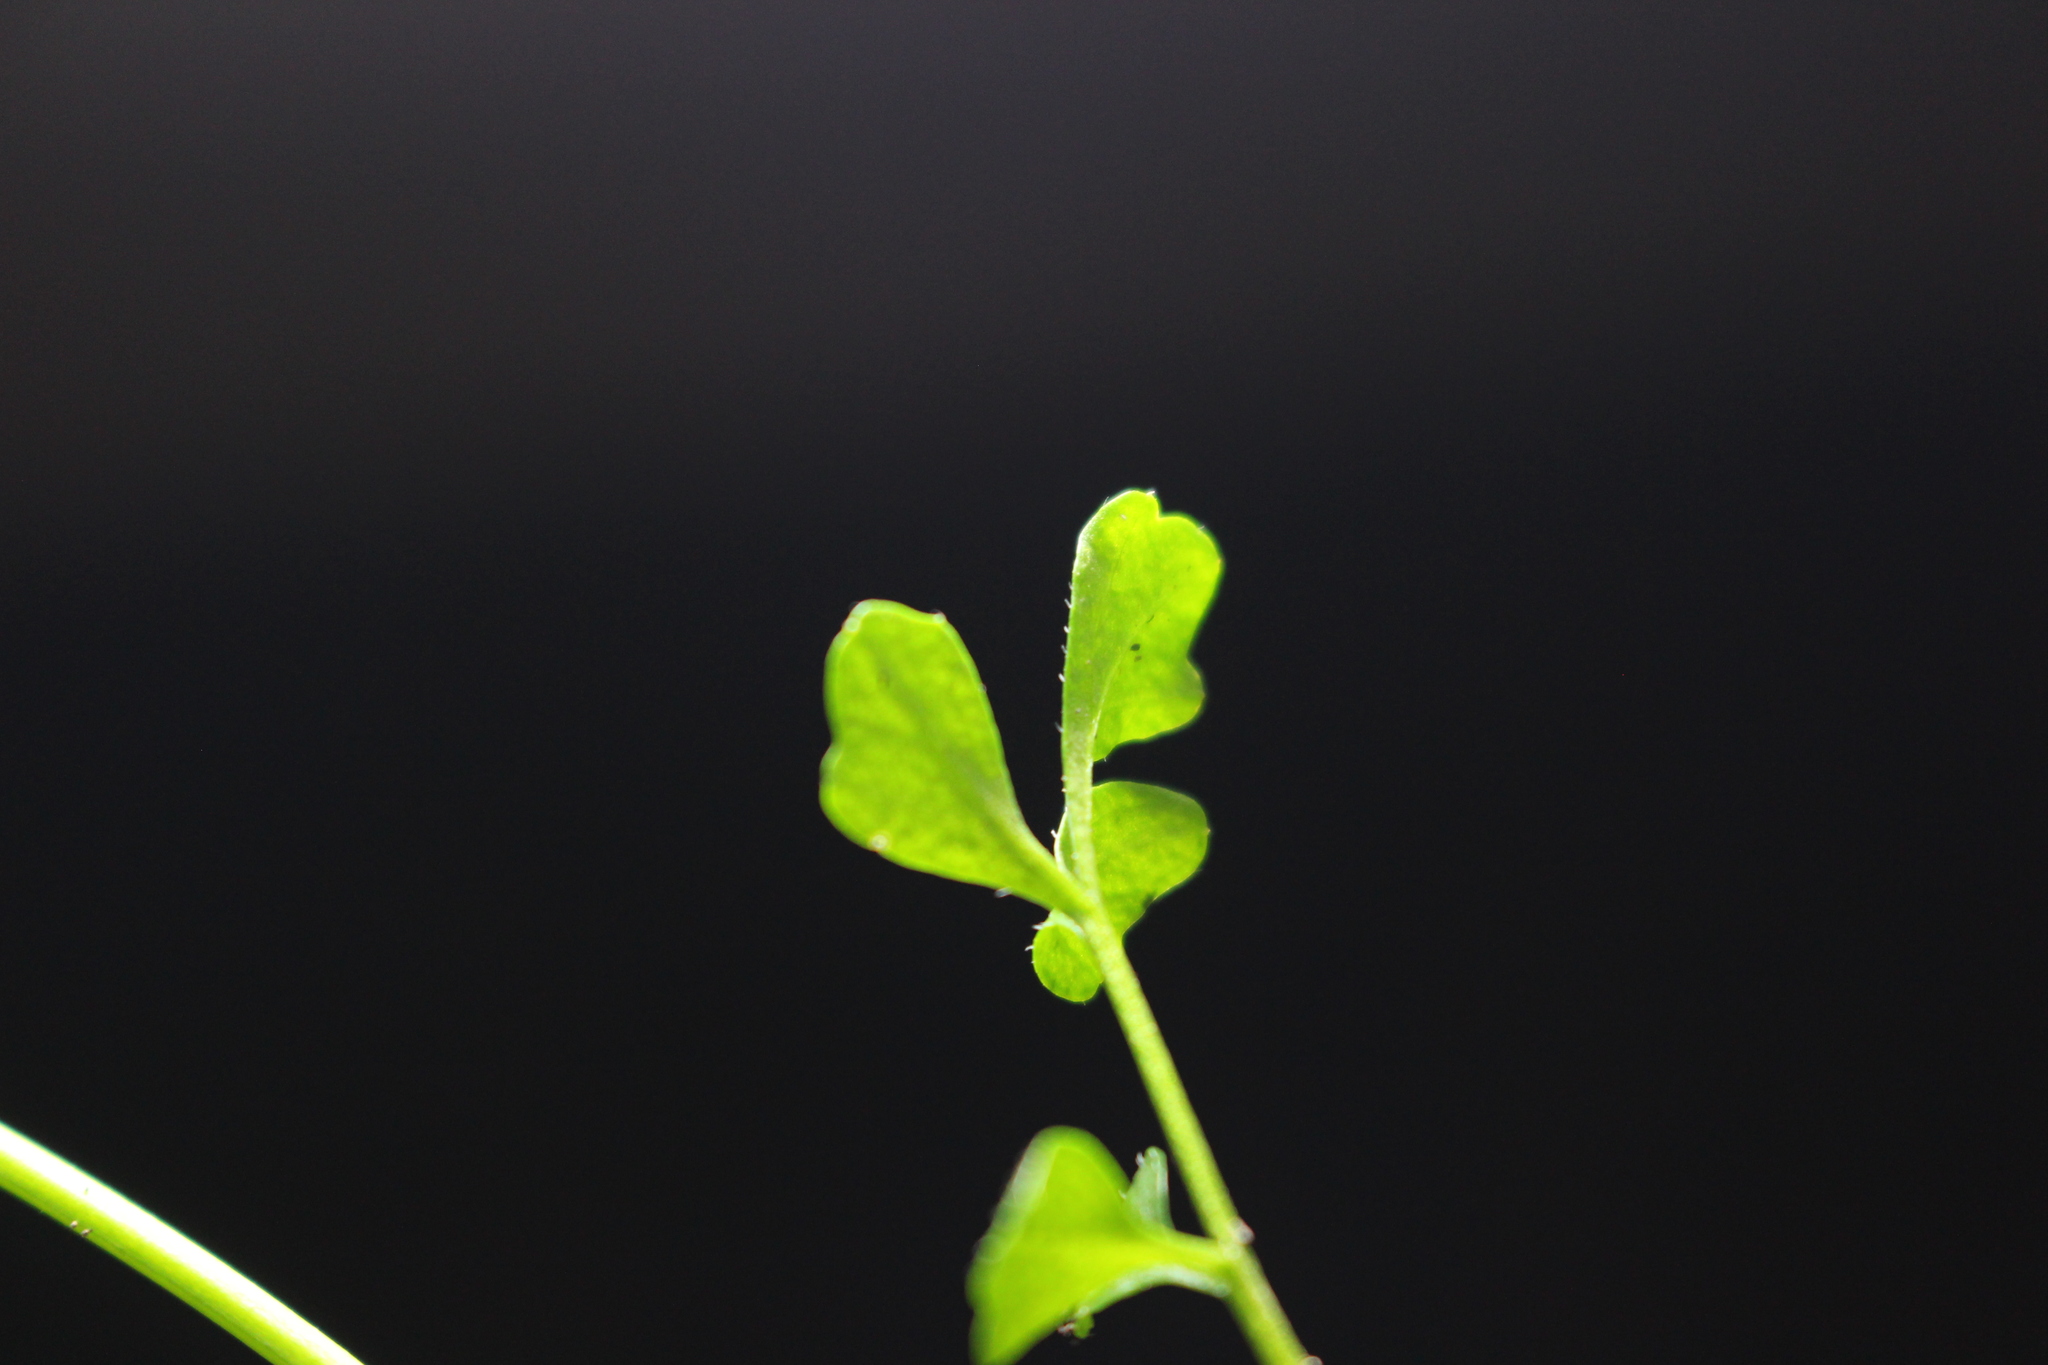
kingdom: Plantae
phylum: Tracheophyta
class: Magnoliopsida
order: Brassicales
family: Brassicaceae
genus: Cardamine
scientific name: Cardamine hirsuta
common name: Hairy bittercress
